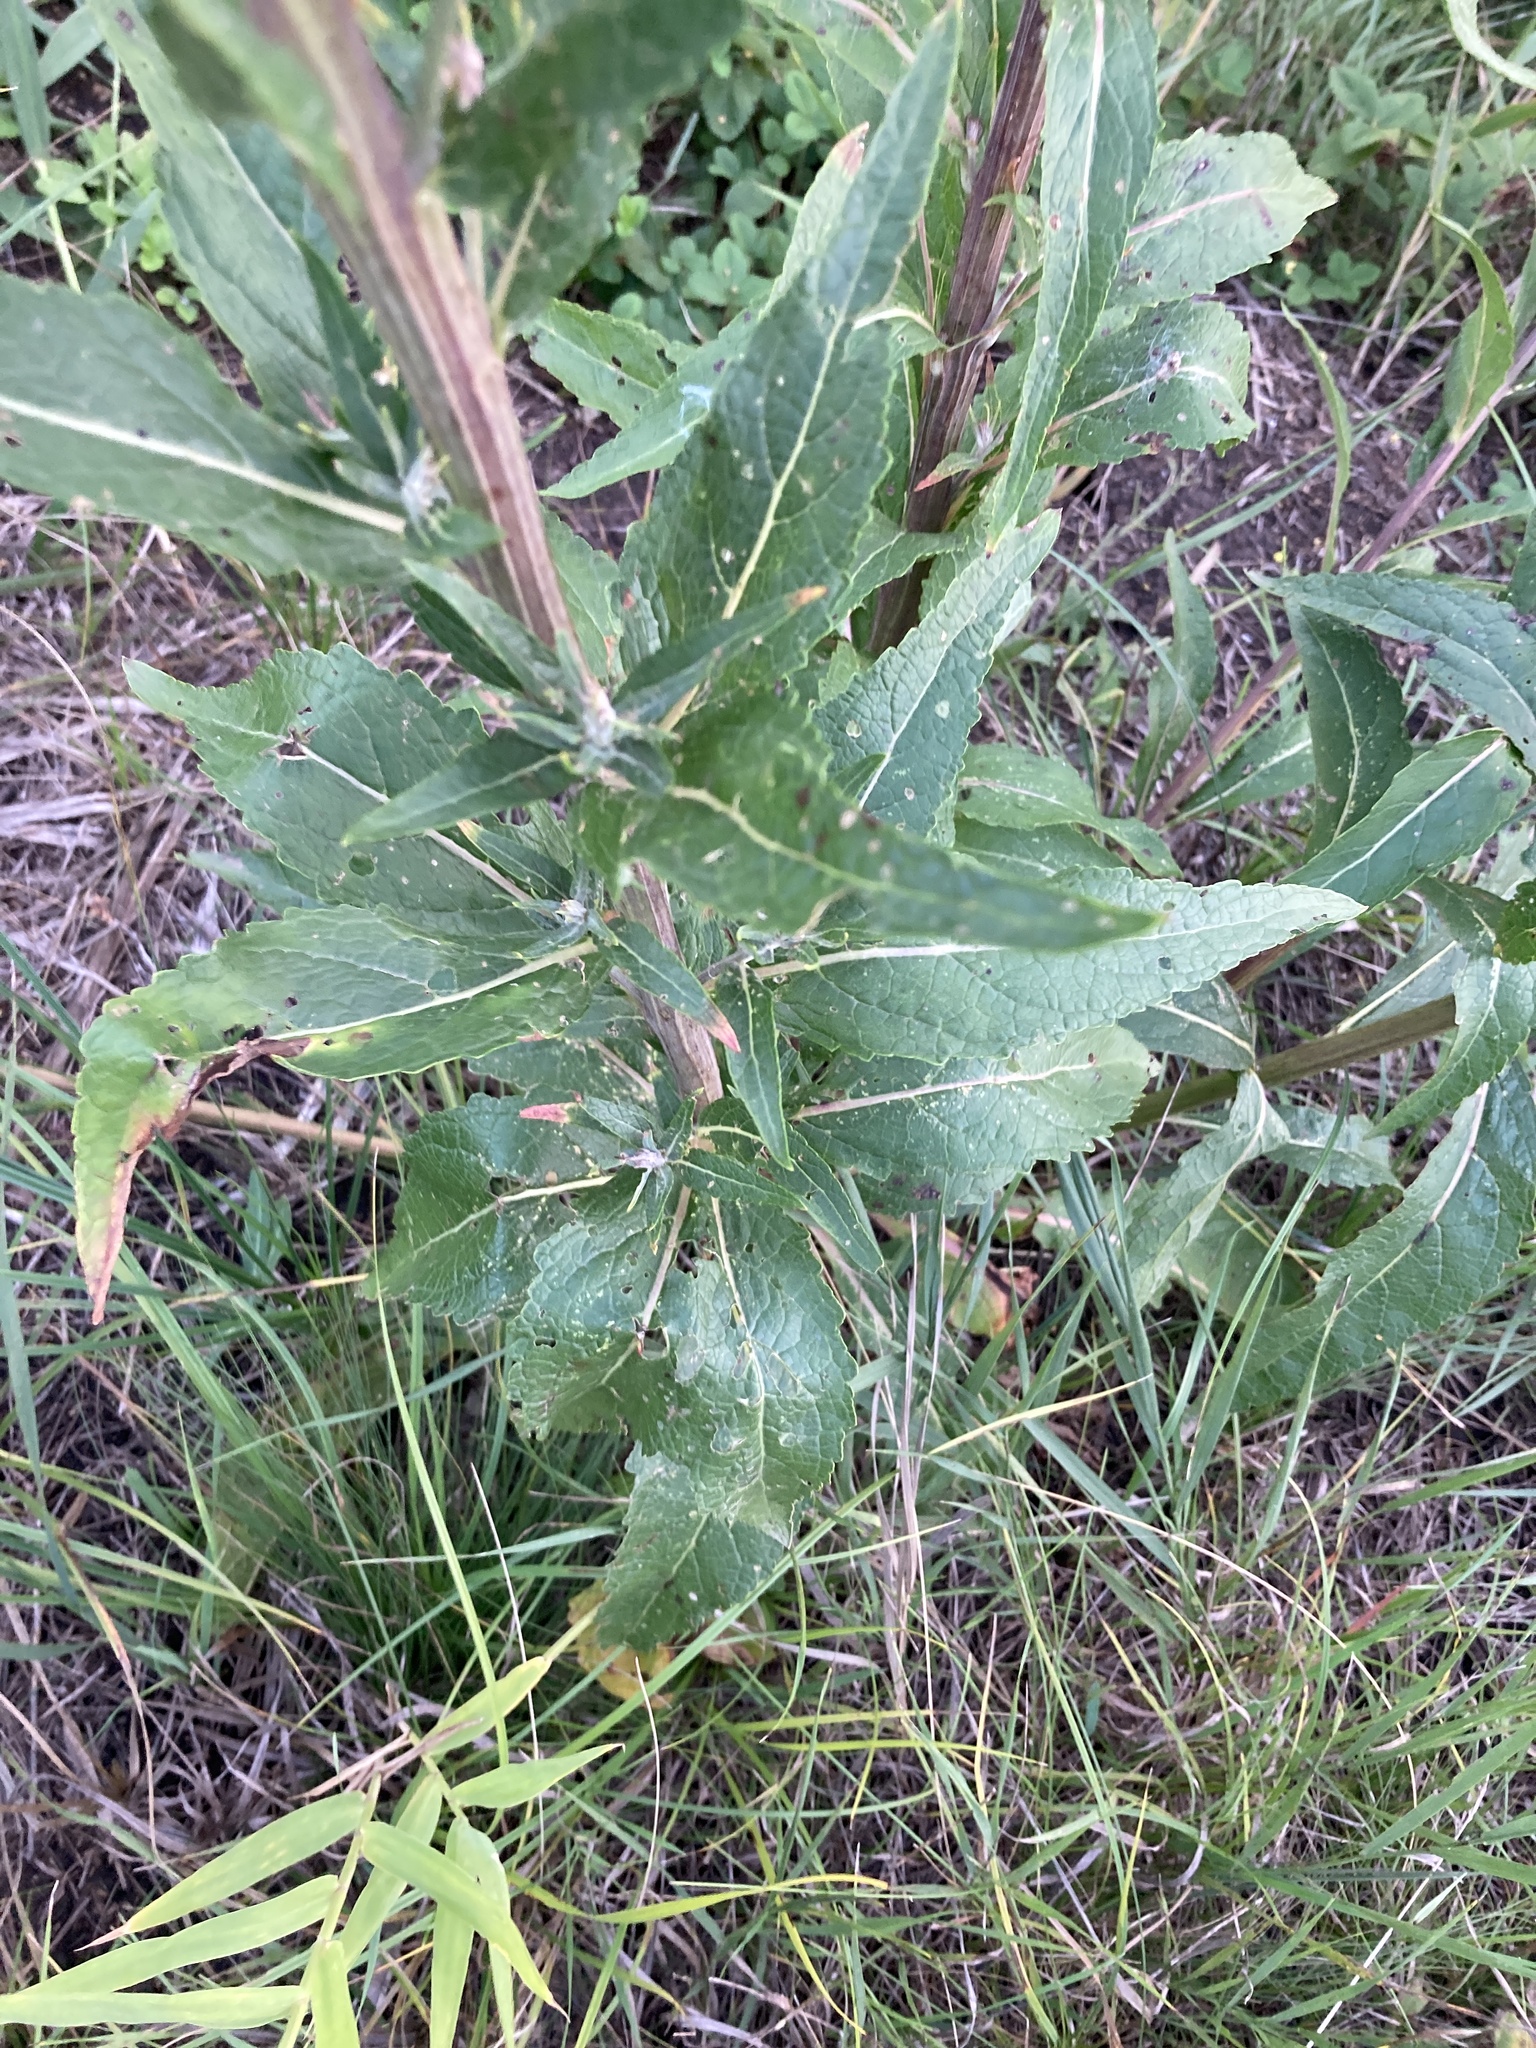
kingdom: Plantae
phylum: Tracheophyta
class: Magnoliopsida
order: Lamiales
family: Scrophulariaceae
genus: Verbascum
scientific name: Verbascum lychnitis
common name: White mullein
